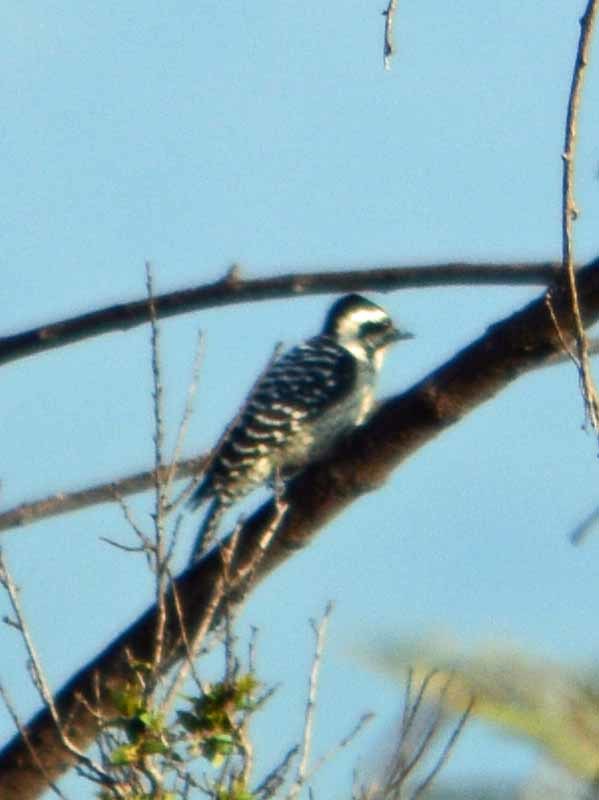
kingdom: Animalia
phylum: Chordata
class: Aves
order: Piciformes
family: Picidae
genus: Dryobates
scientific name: Dryobates scalaris
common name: Ladder-backed woodpecker
